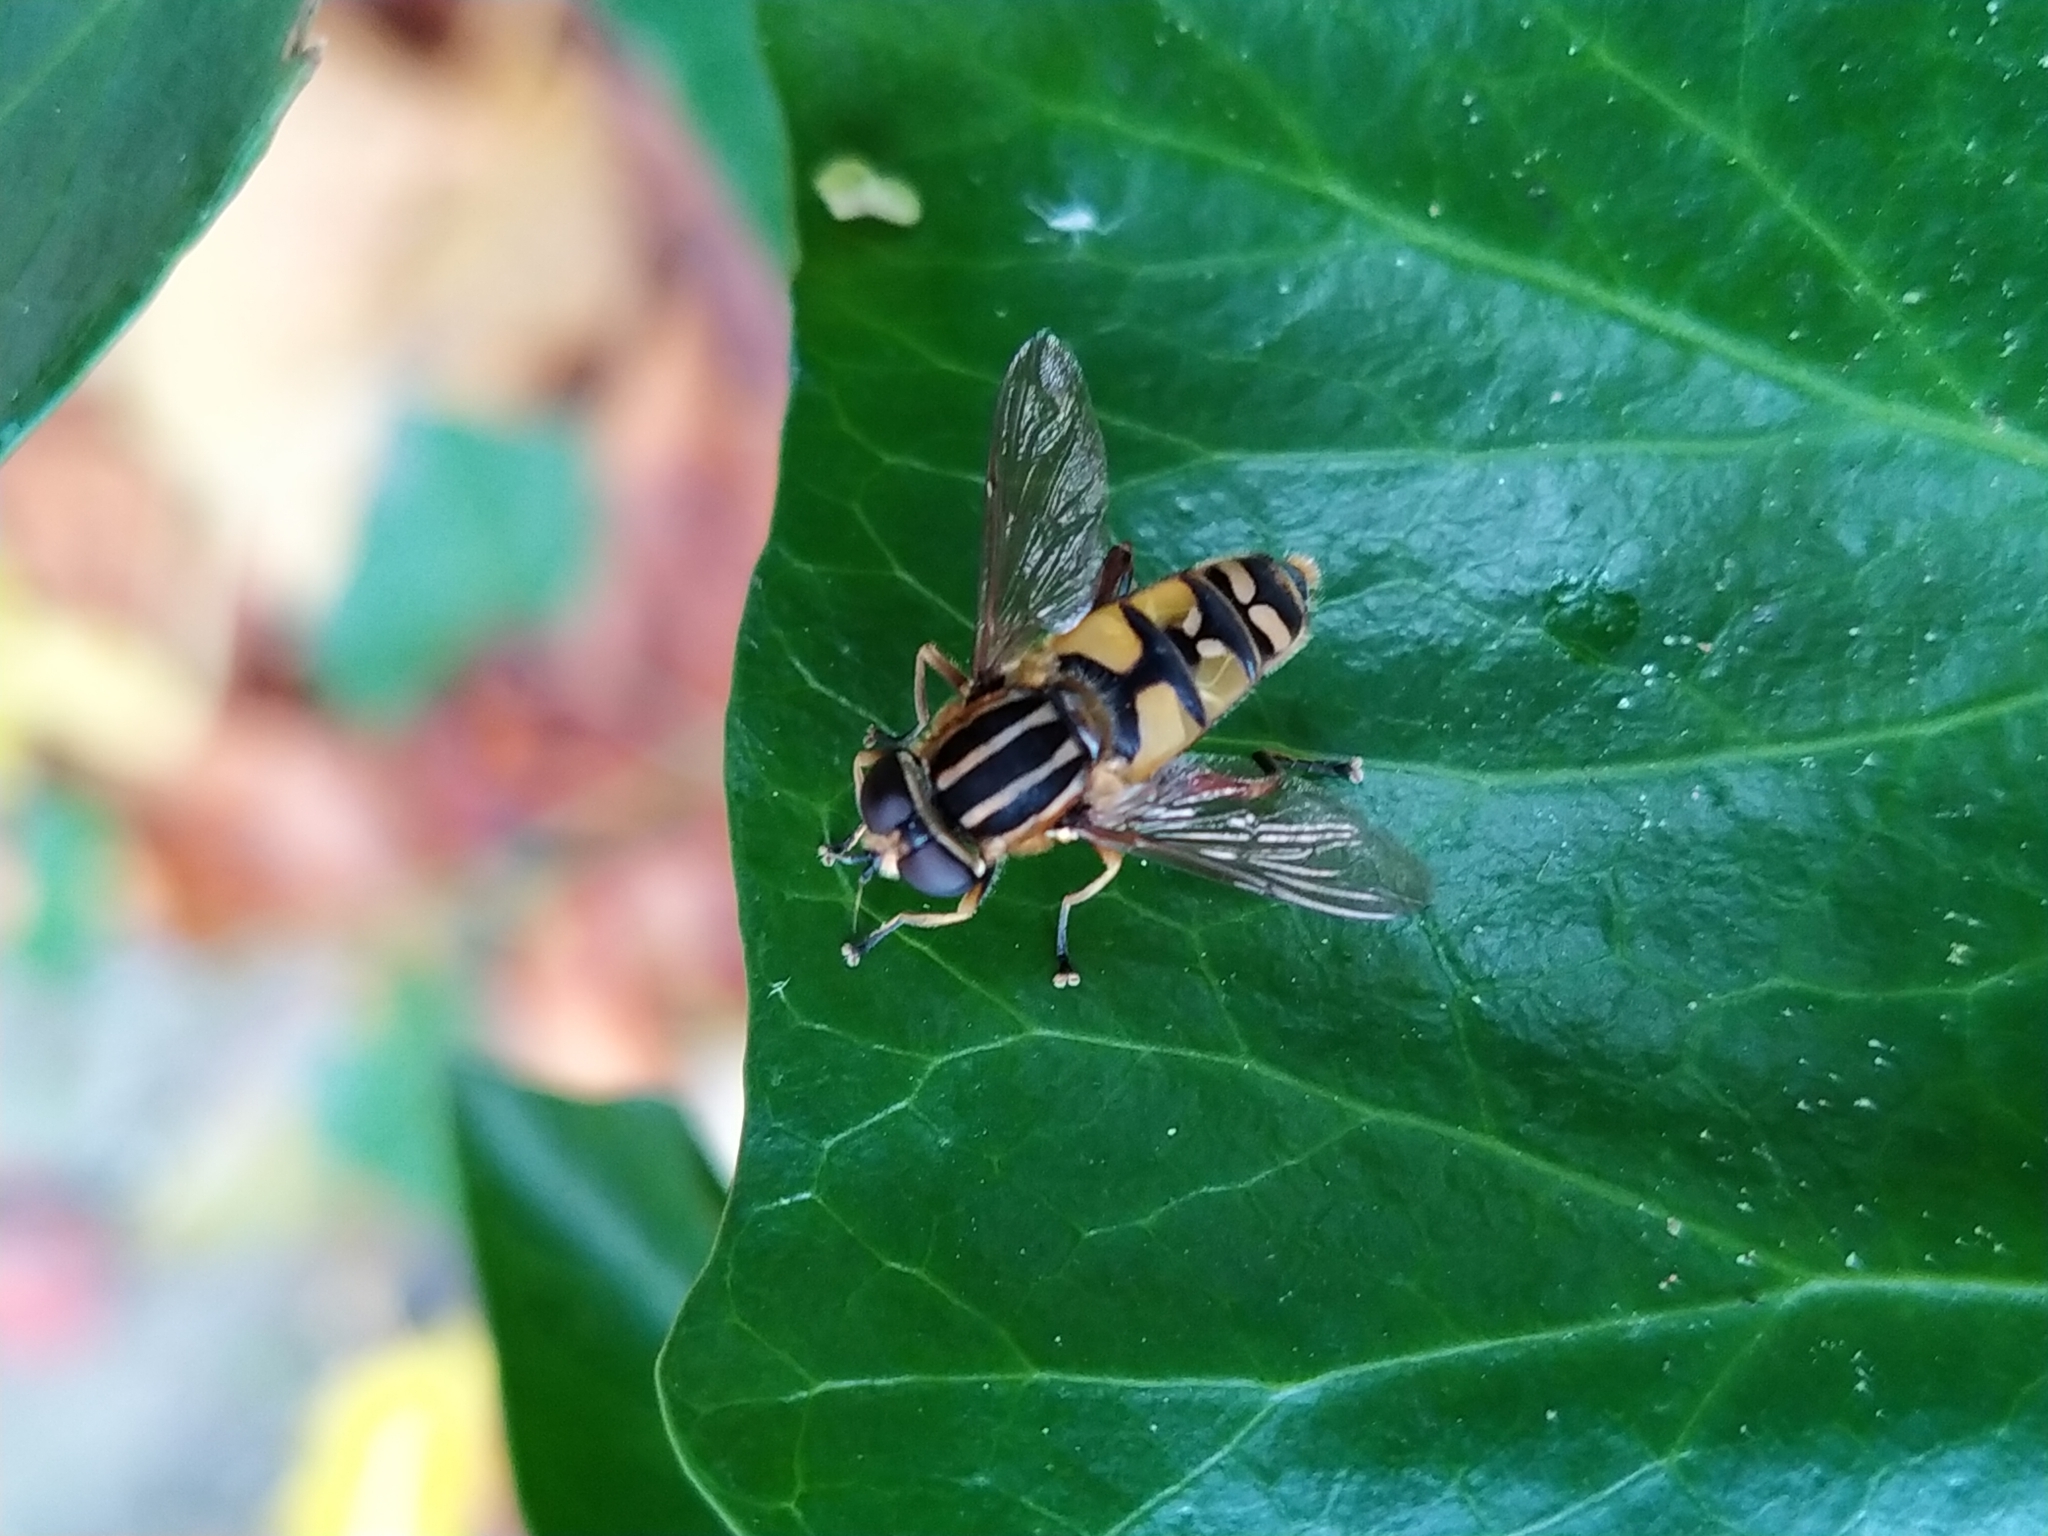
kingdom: Animalia
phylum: Arthropoda
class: Insecta
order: Diptera
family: Syrphidae
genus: Helophilus
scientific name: Helophilus pendulus
